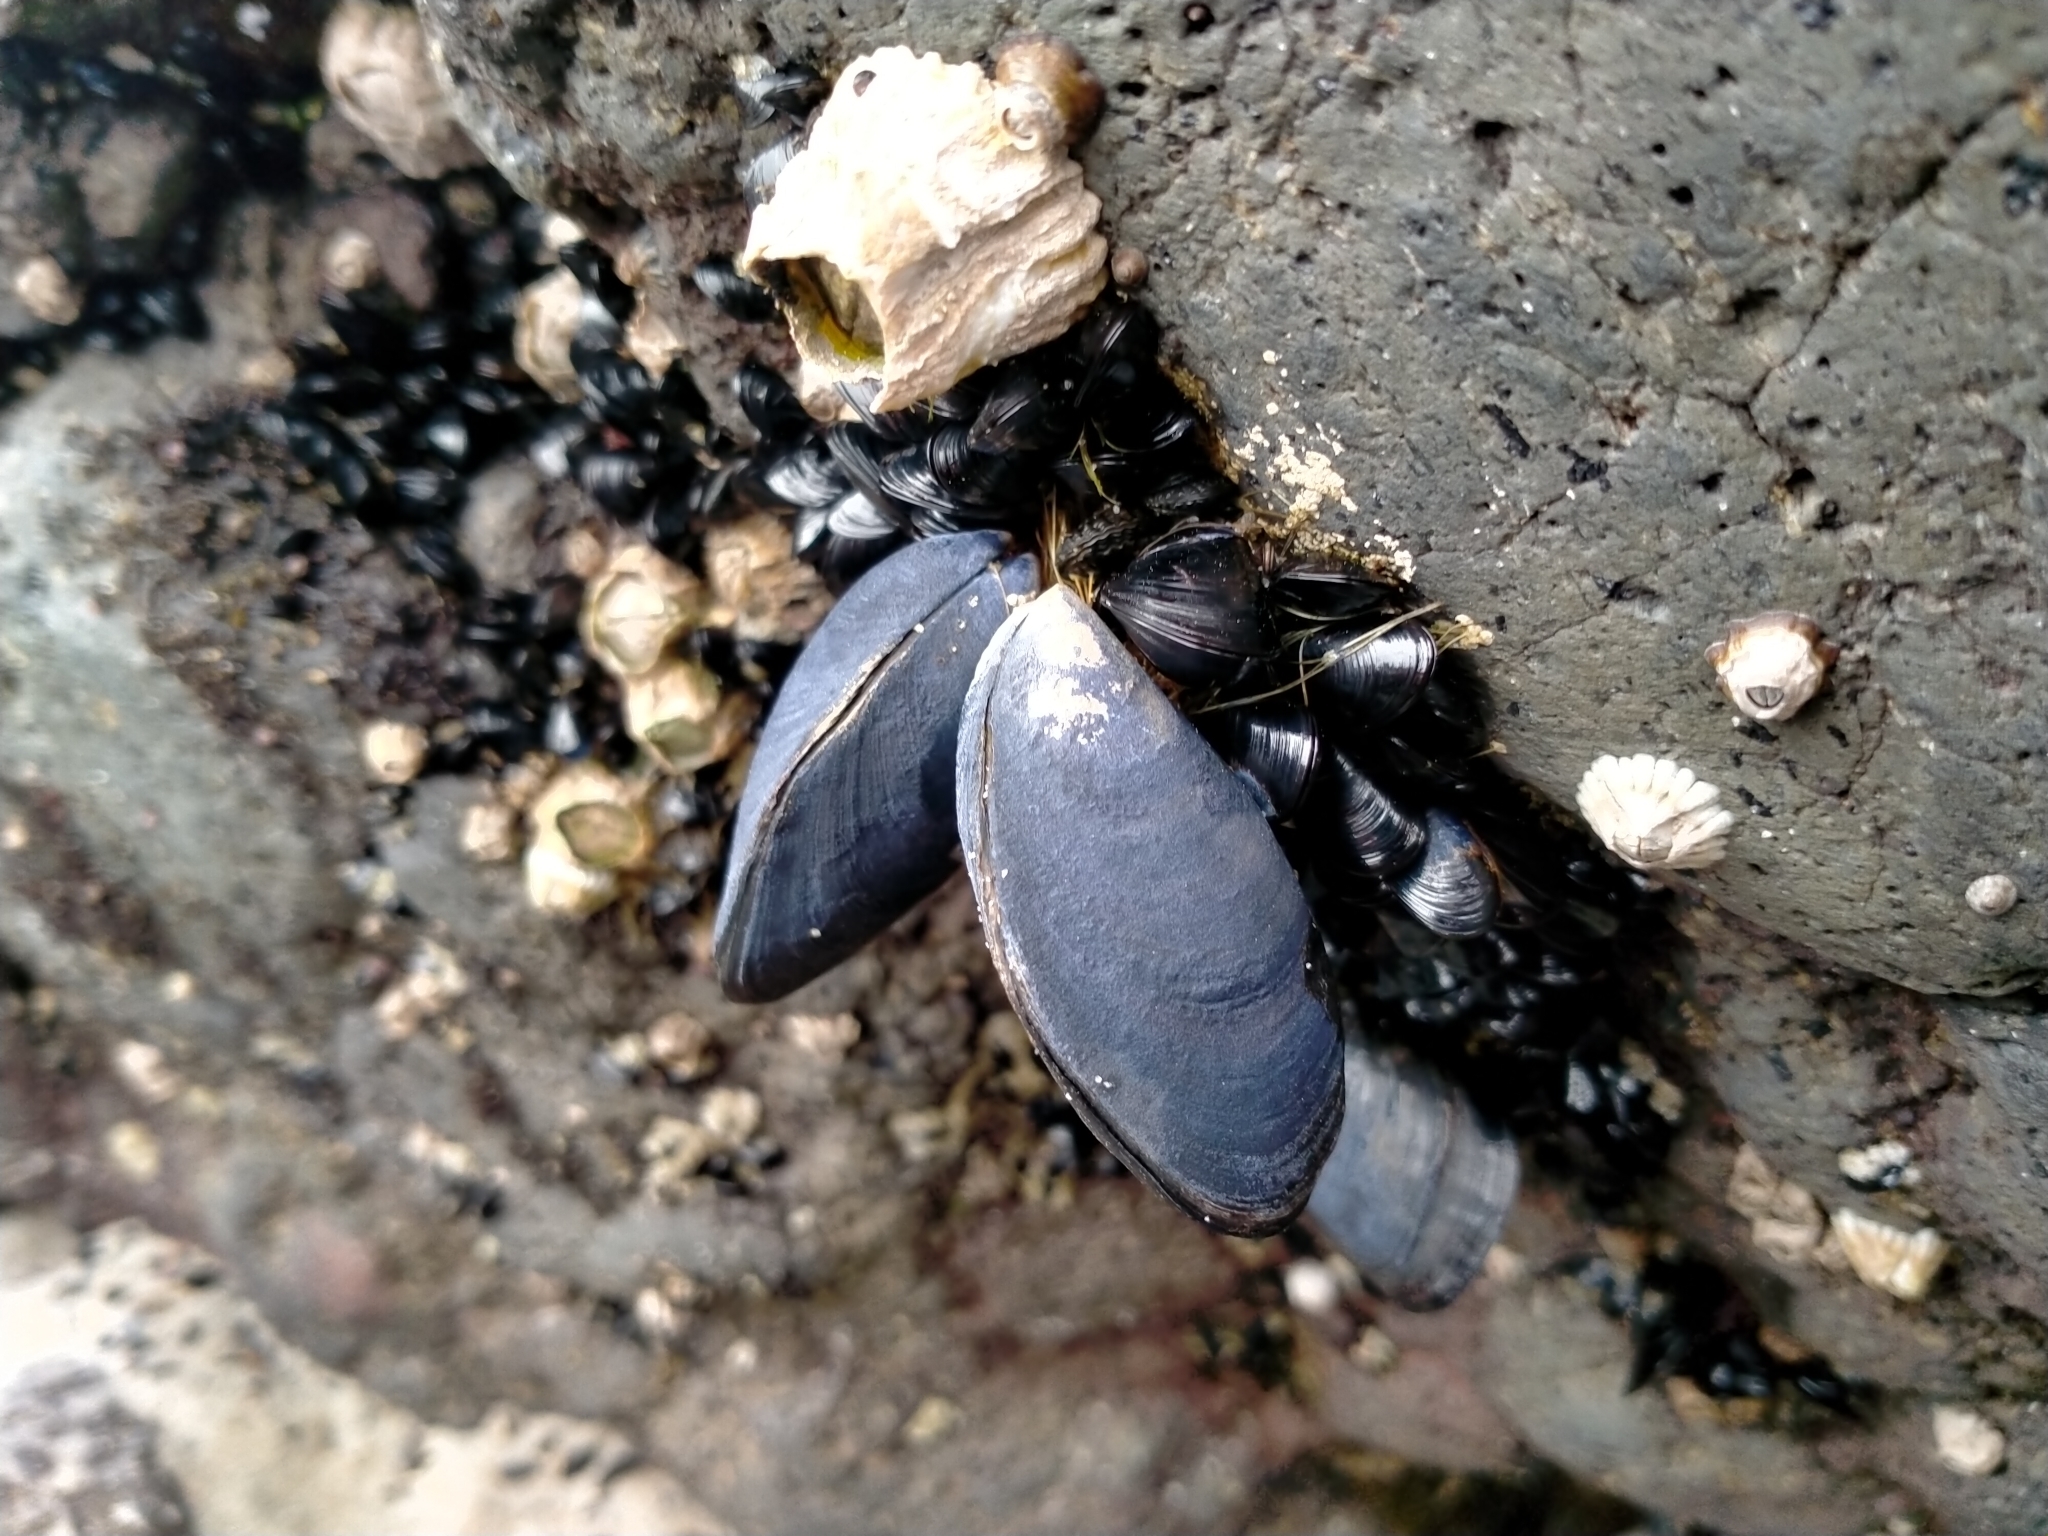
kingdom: Animalia
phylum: Mollusca
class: Bivalvia
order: Mytilida
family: Mytilidae
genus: Mytilus
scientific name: Mytilus planulatus
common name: Australian mussel
